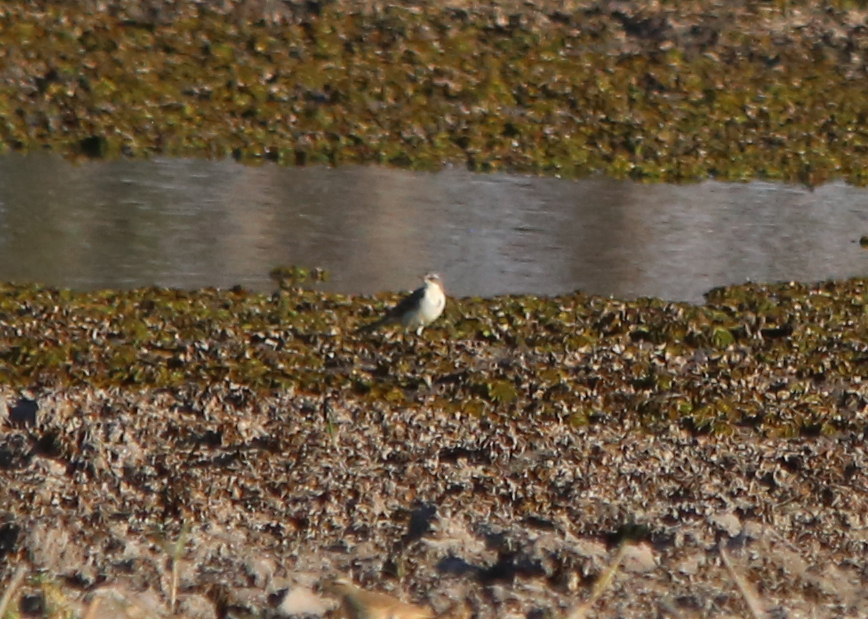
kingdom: Animalia
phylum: Chordata
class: Aves
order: Passeriformes
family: Motacillidae
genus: Motacilla
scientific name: Motacilla flava
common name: Western yellow wagtail
